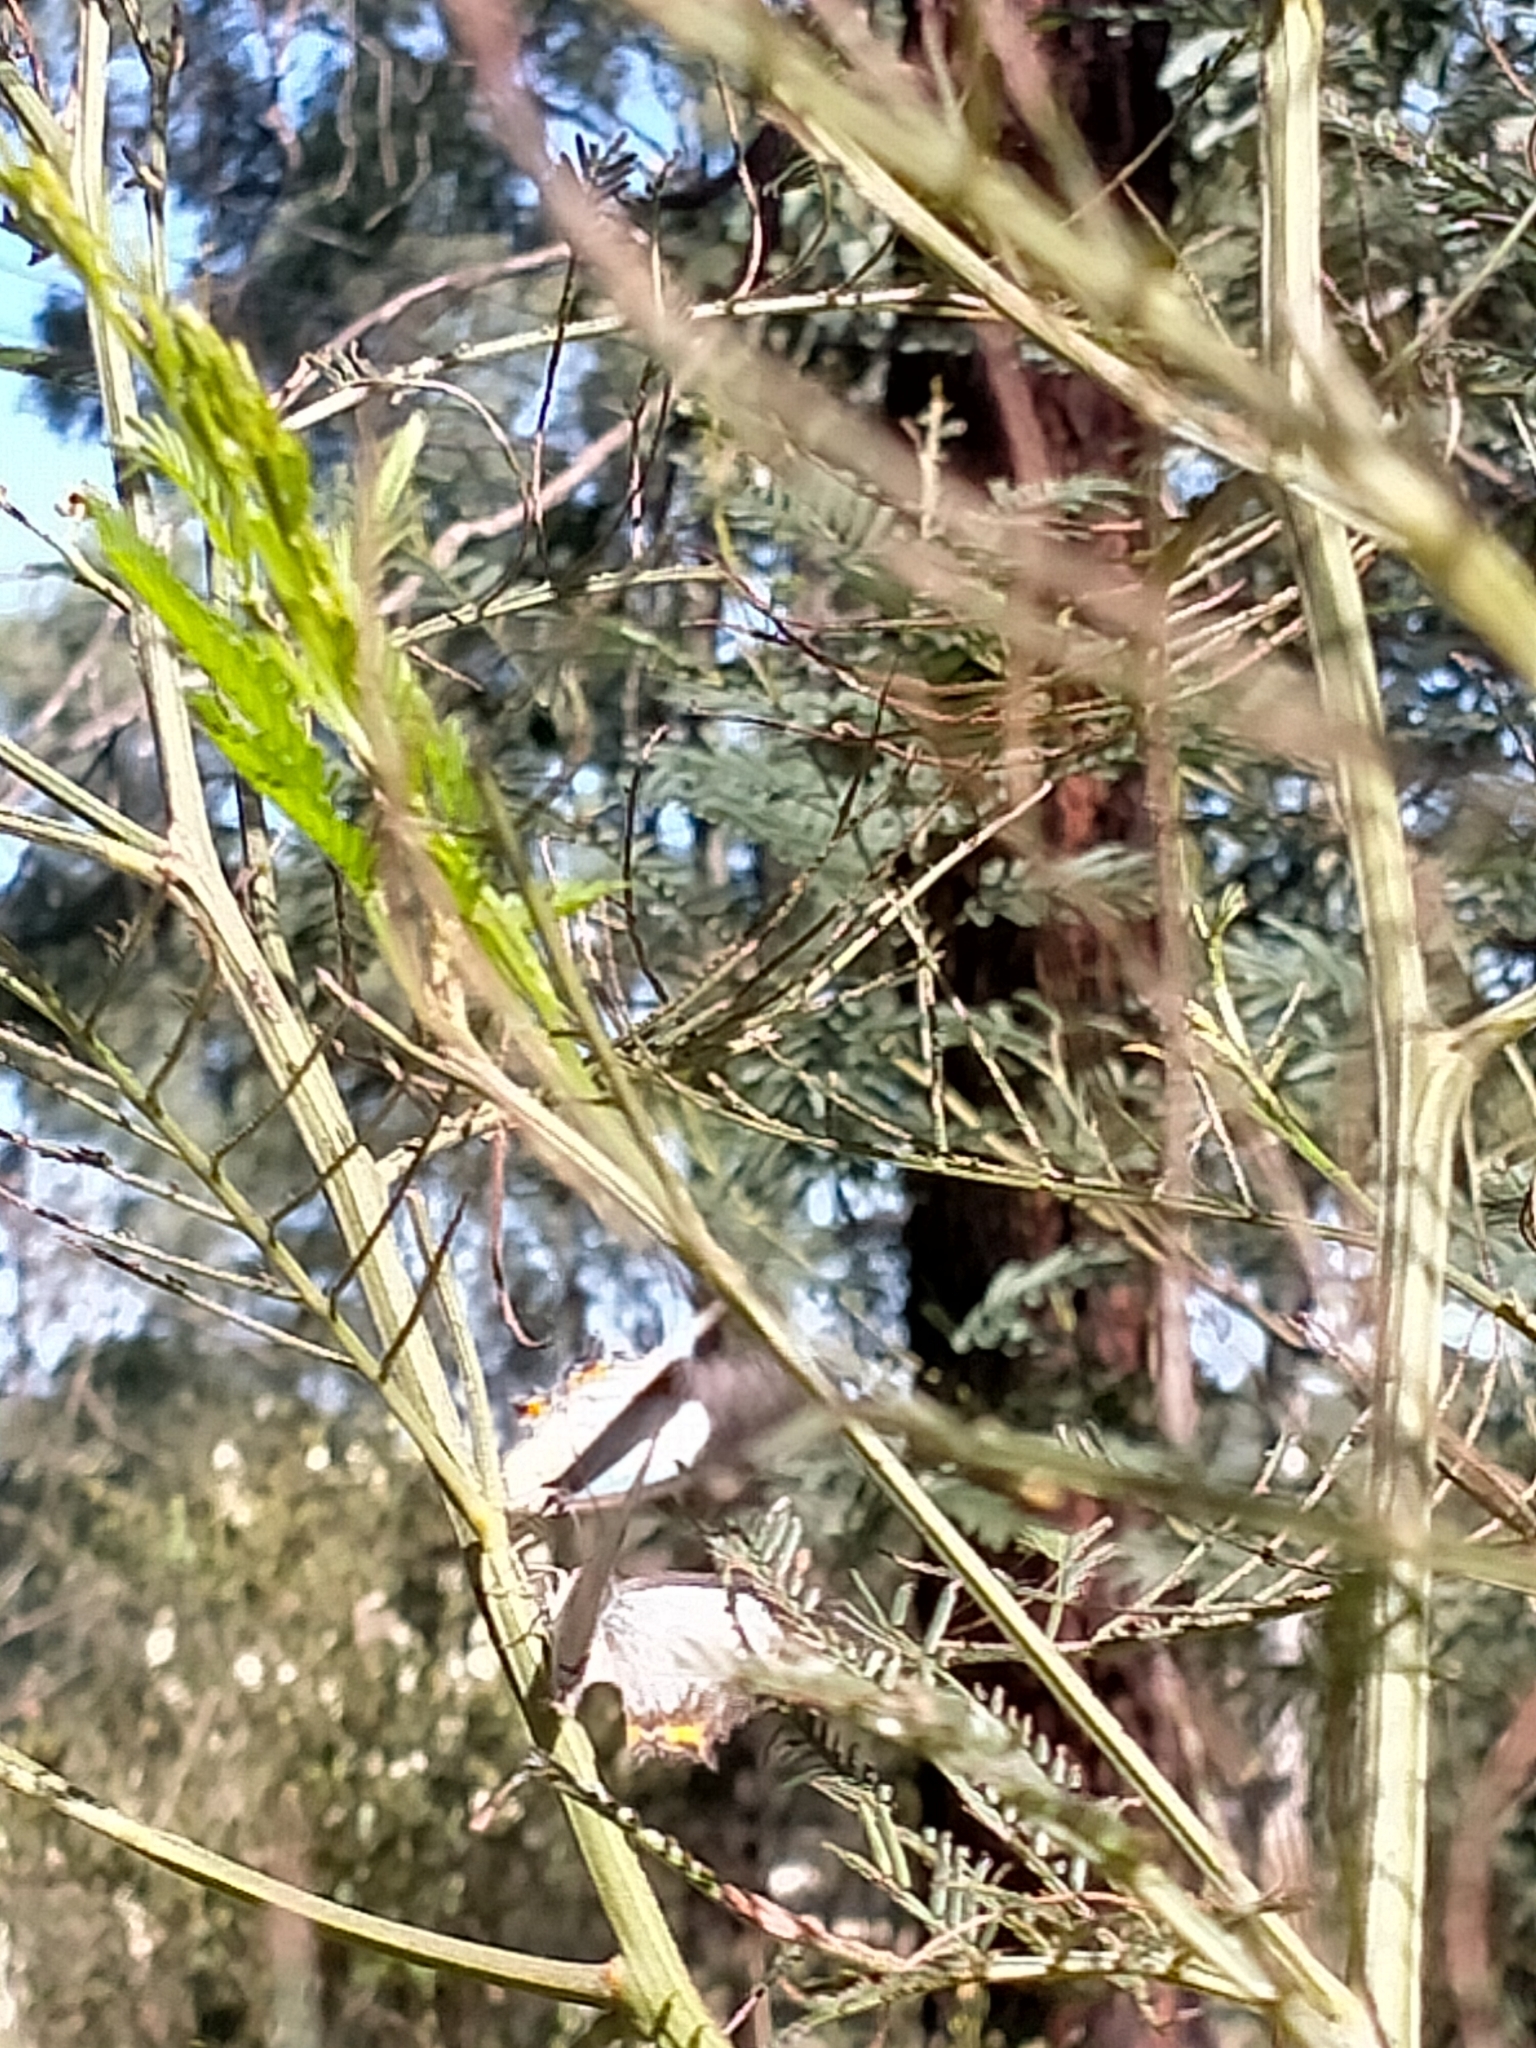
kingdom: Animalia
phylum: Arthropoda
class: Insecta
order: Lepidoptera
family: Lycaenidae
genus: Jalmenus
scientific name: Jalmenus evagoras
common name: Common imperial blue
